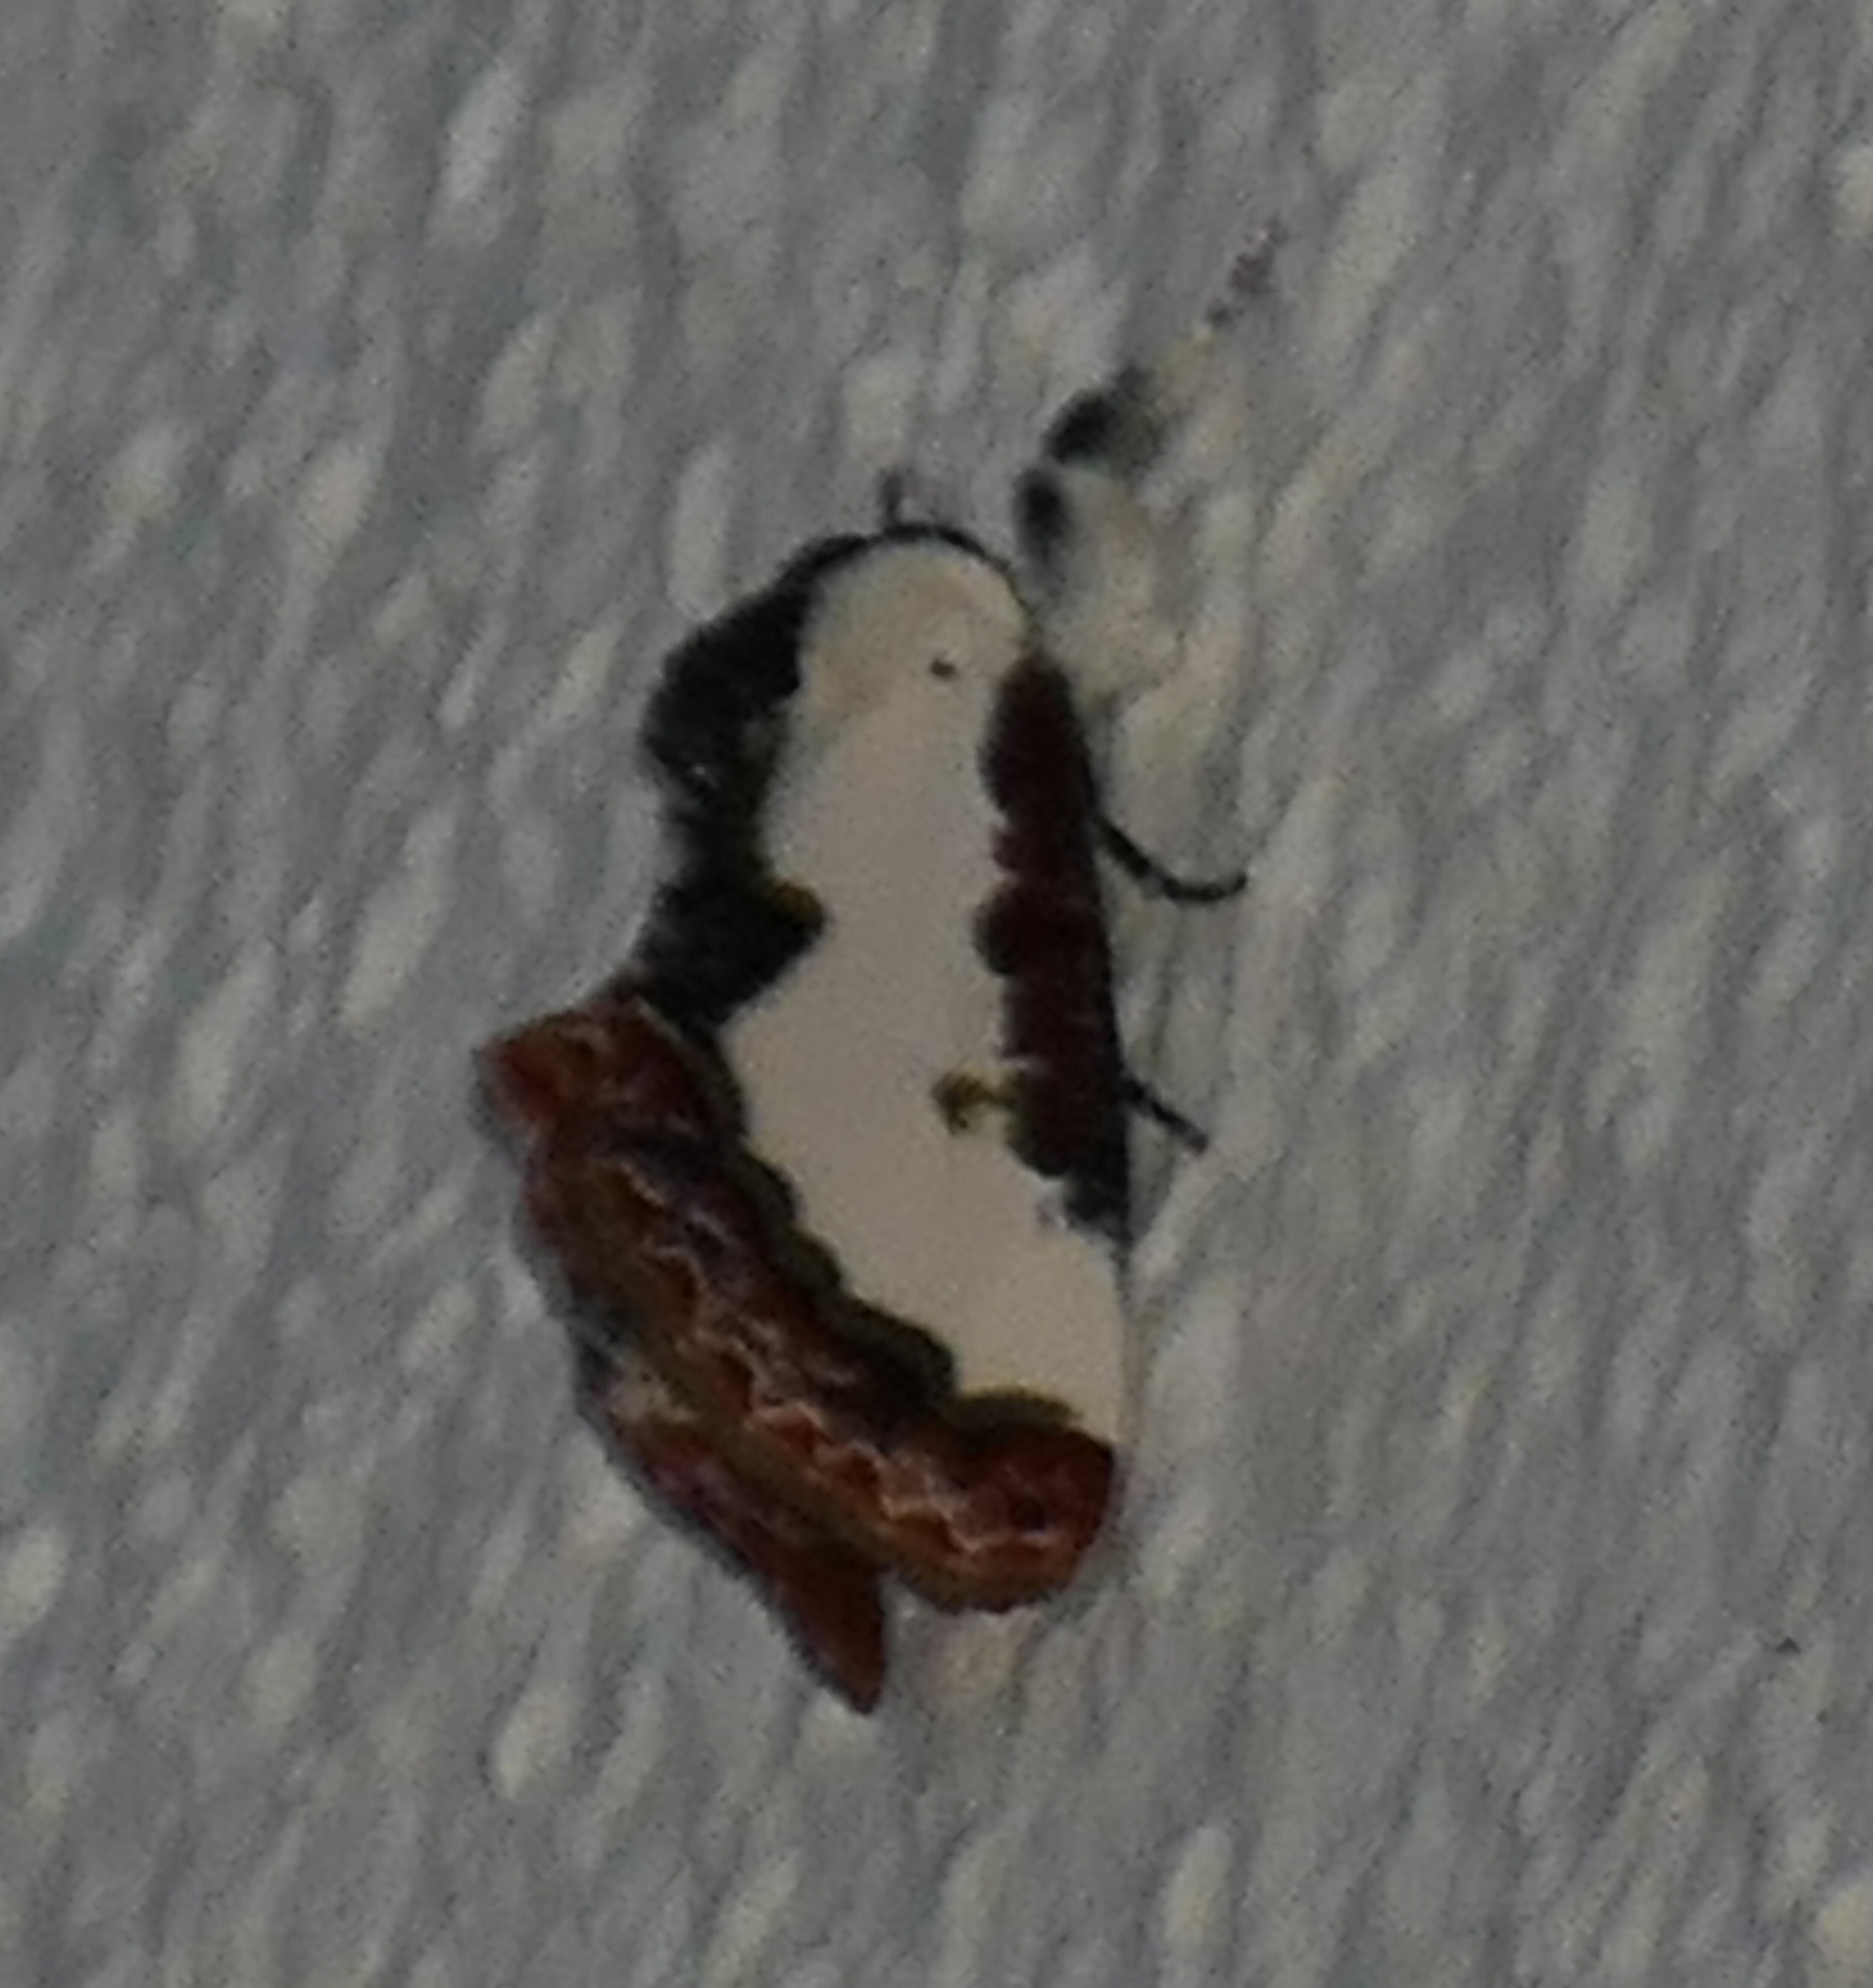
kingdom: Animalia
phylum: Arthropoda
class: Insecta
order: Lepidoptera
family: Noctuidae
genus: Eudryas
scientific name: Eudryas unio
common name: Pearly wood-nymph
